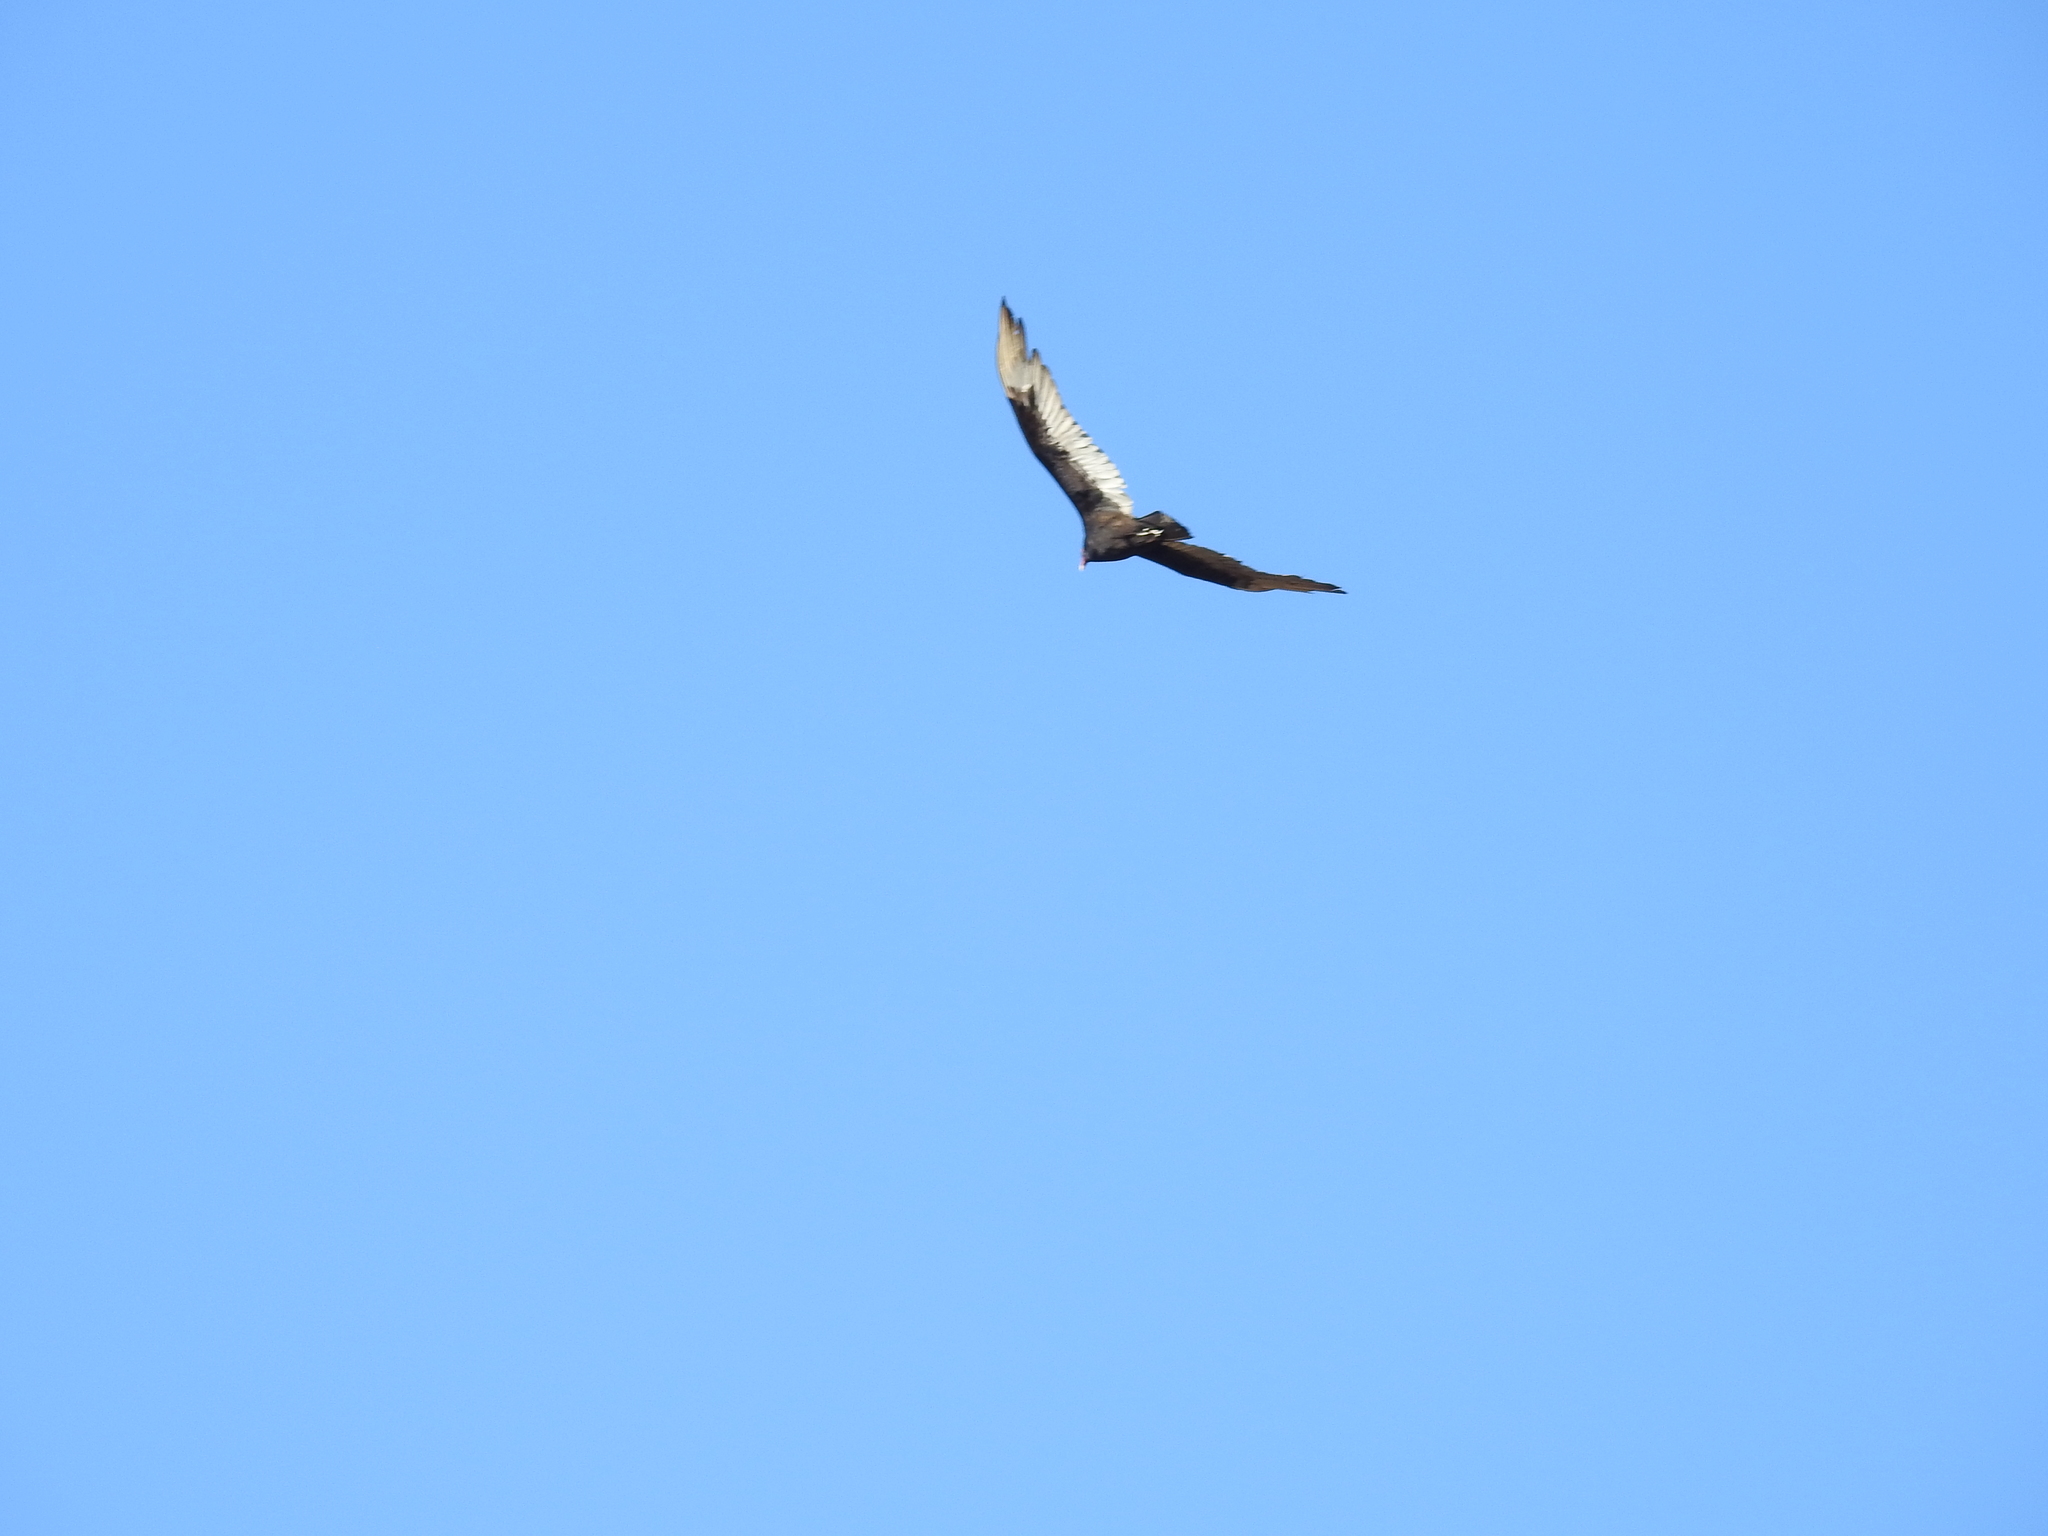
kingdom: Animalia
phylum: Chordata
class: Aves
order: Accipitriformes
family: Cathartidae
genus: Cathartes
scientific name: Cathartes aura
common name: Turkey vulture
